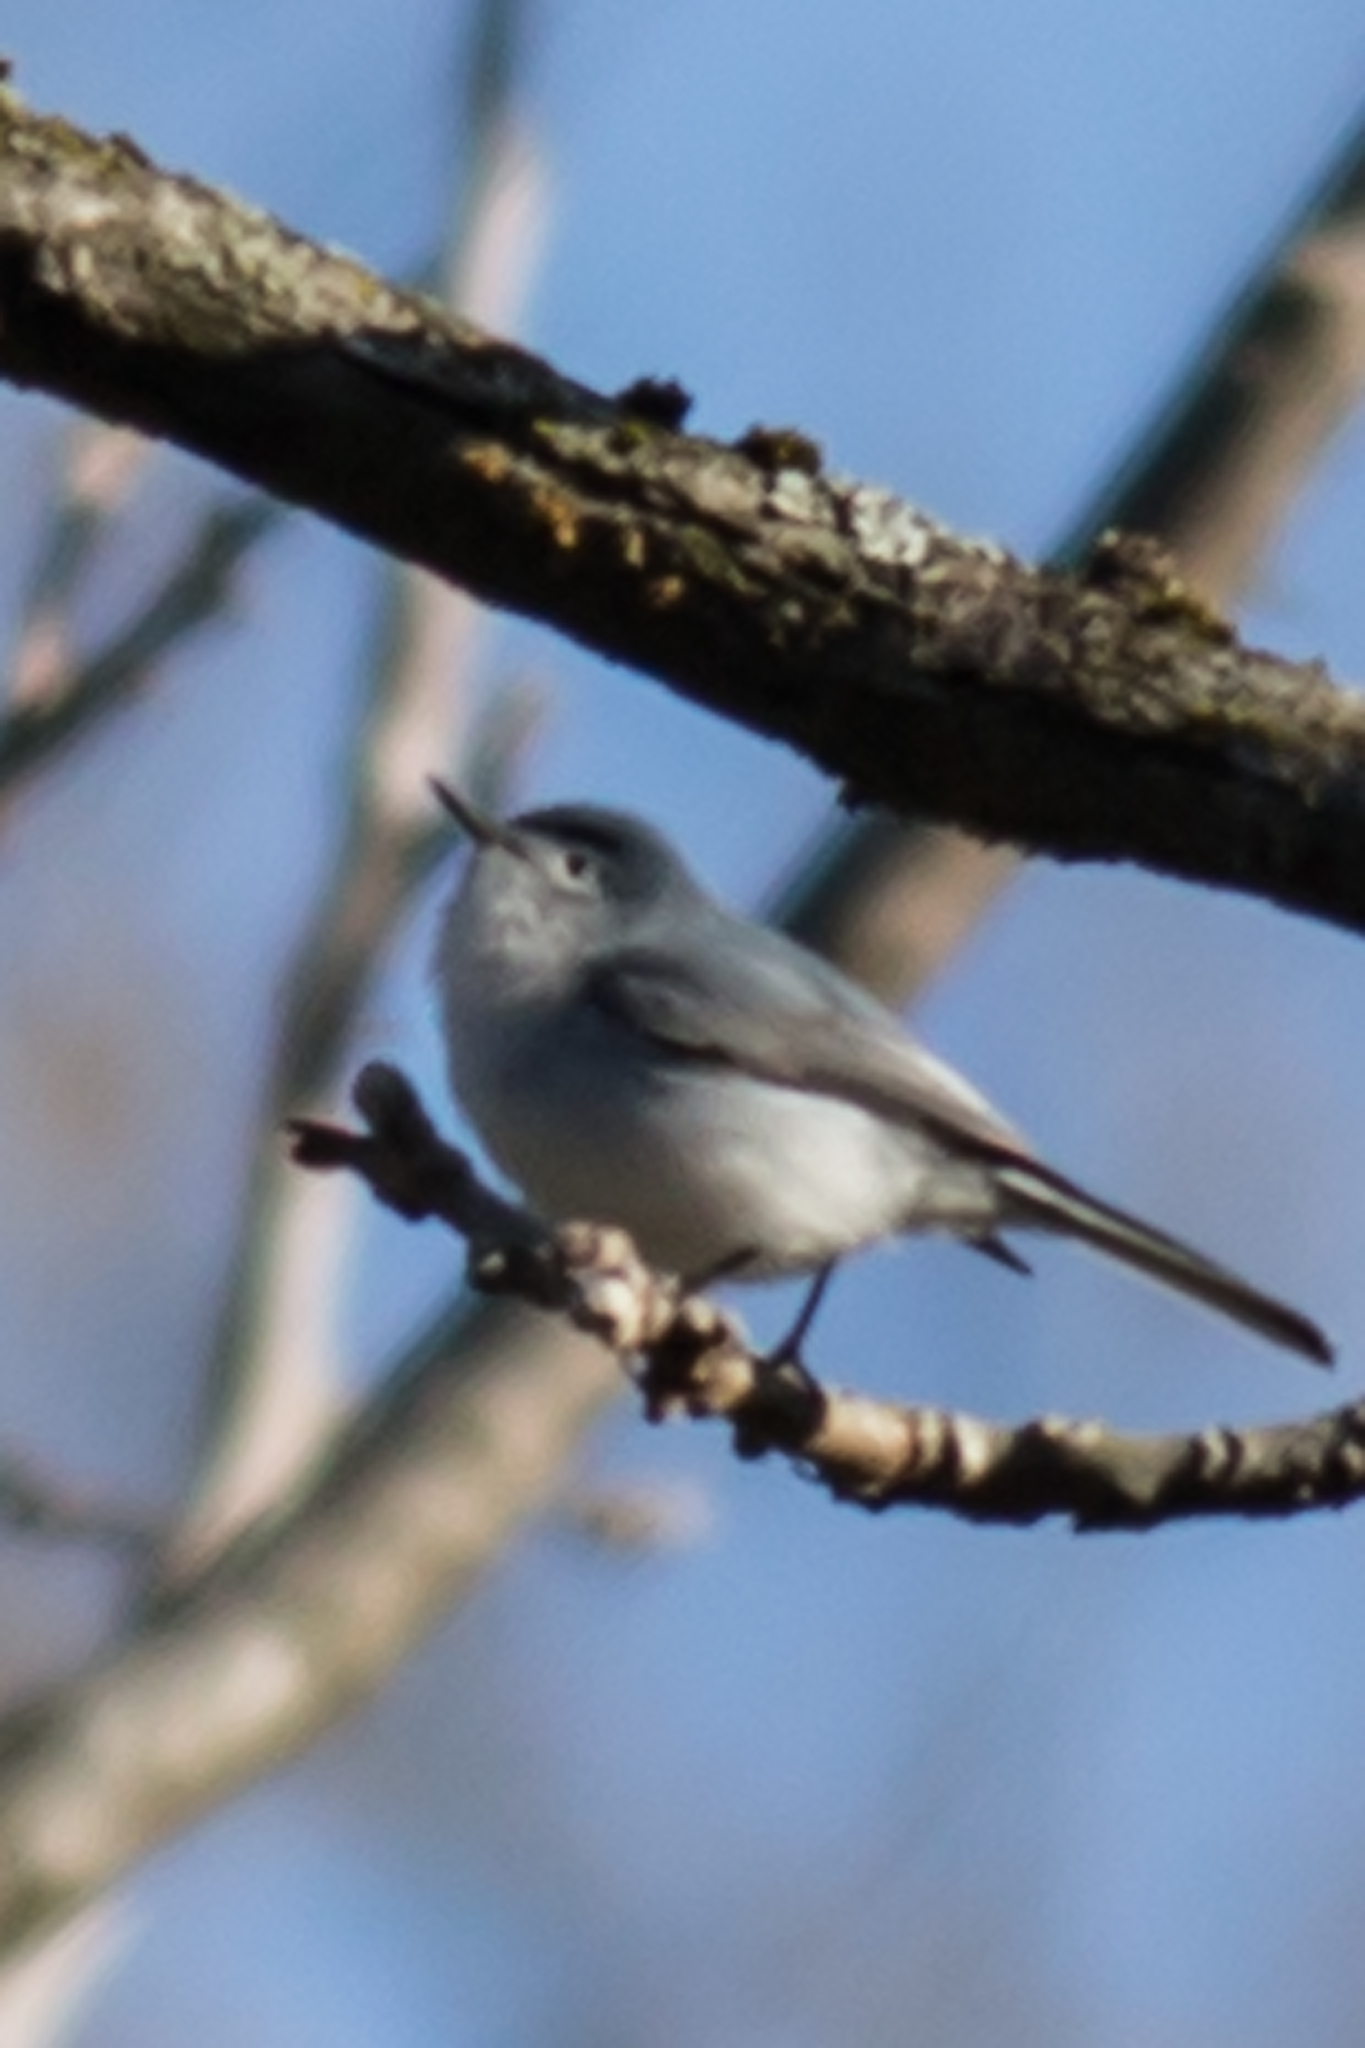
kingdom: Animalia
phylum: Chordata
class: Aves
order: Passeriformes
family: Polioptilidae
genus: Polioptila
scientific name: Polioptila caerulea
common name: Blue-gray gnatcatcher
